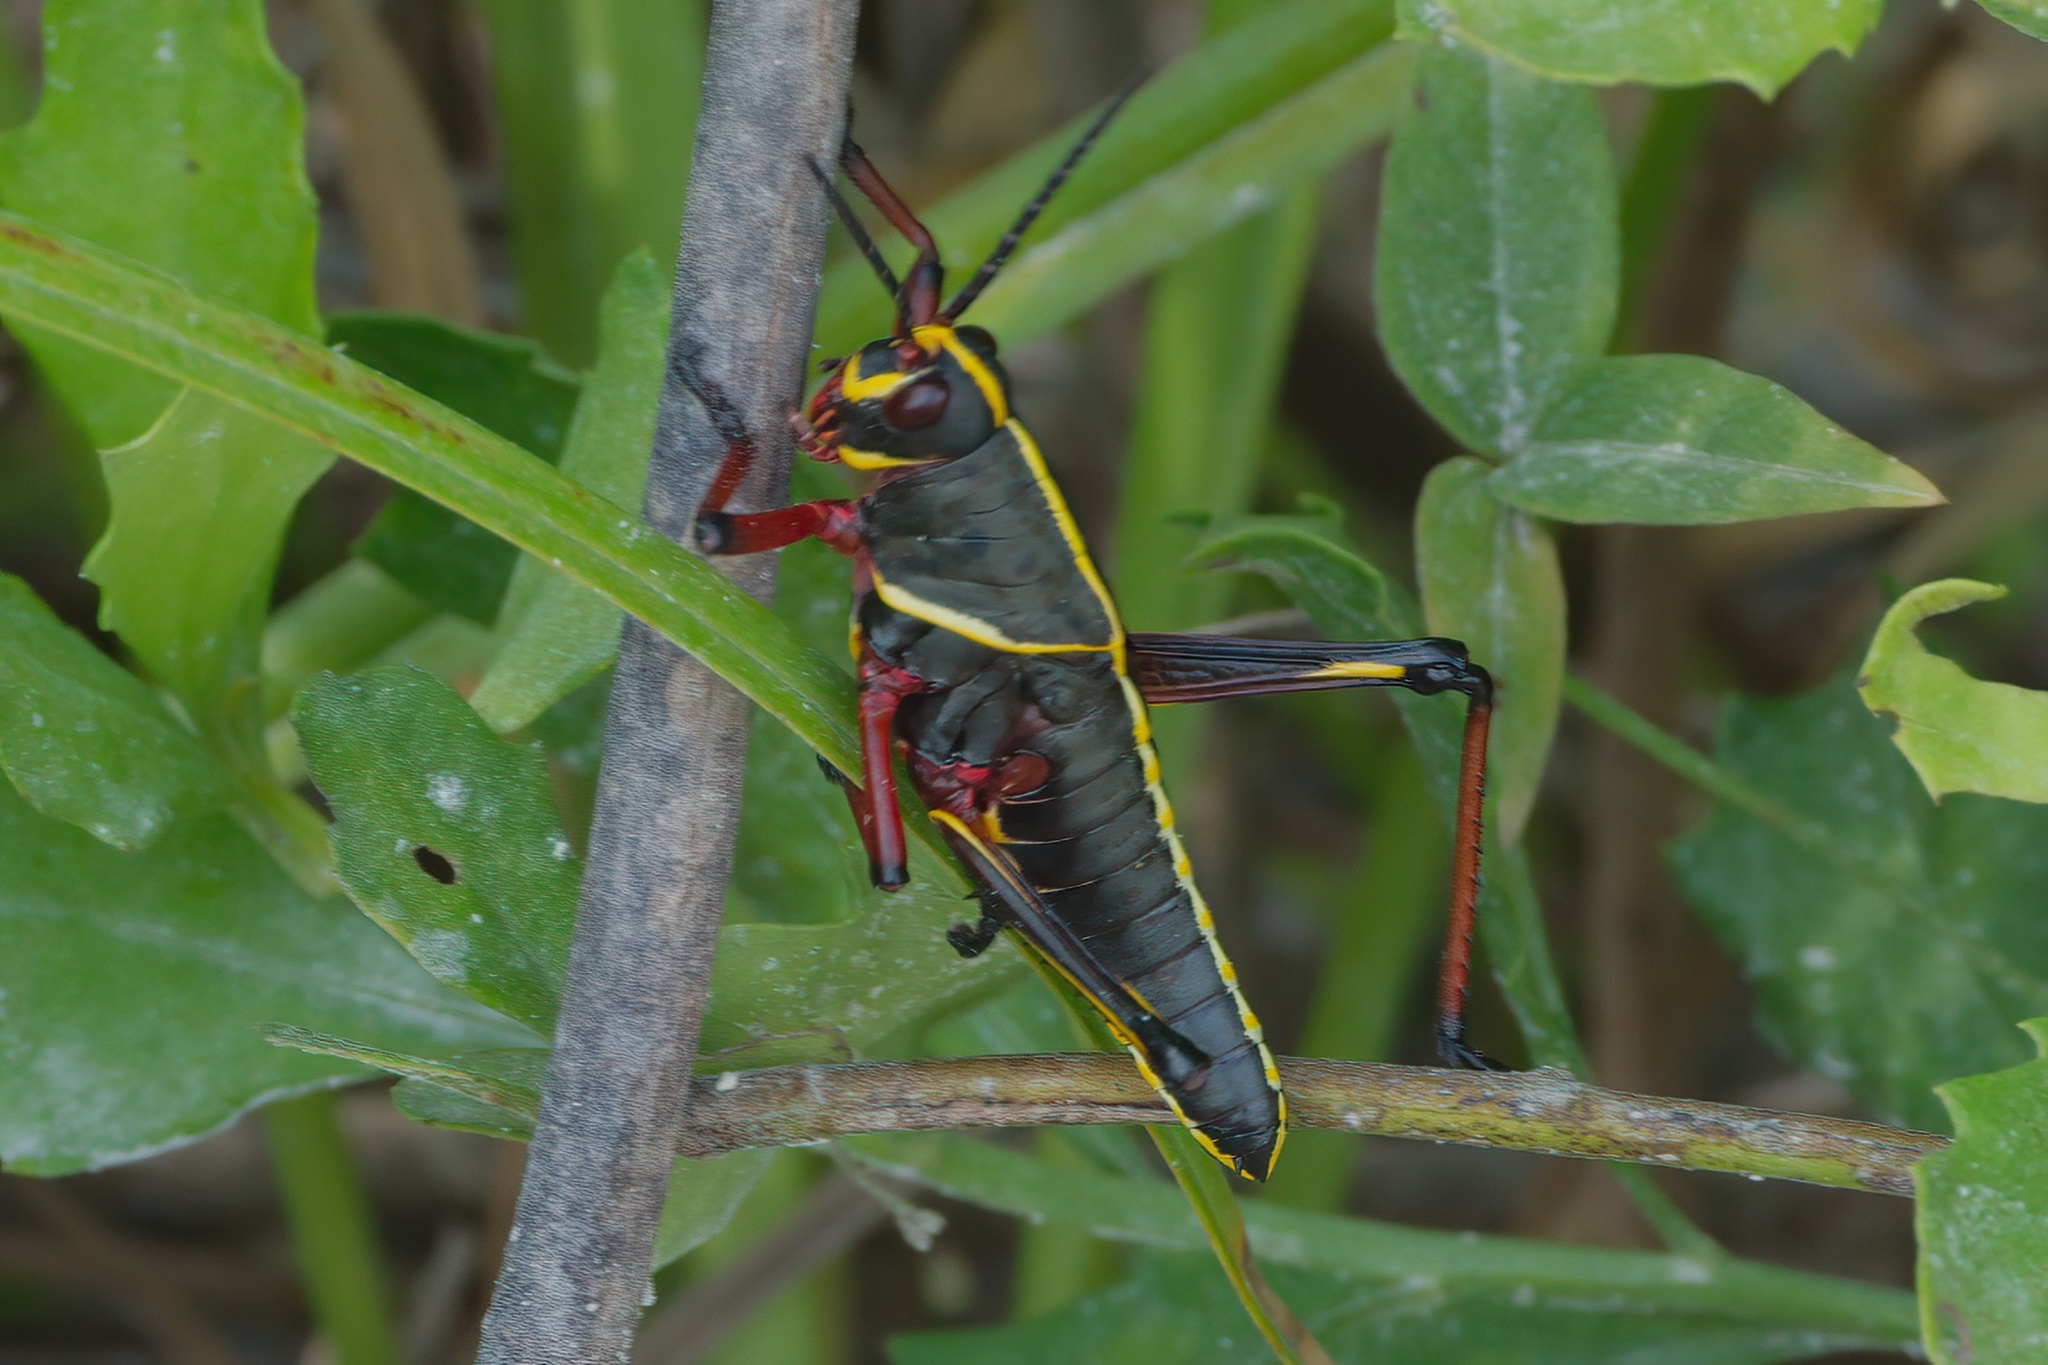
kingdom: Animalia
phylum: Arthropoda
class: Insecta
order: Orthoptera
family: Romaleidae
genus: Romalea
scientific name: Romalea microptera
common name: Eastern lubber grasshopper
